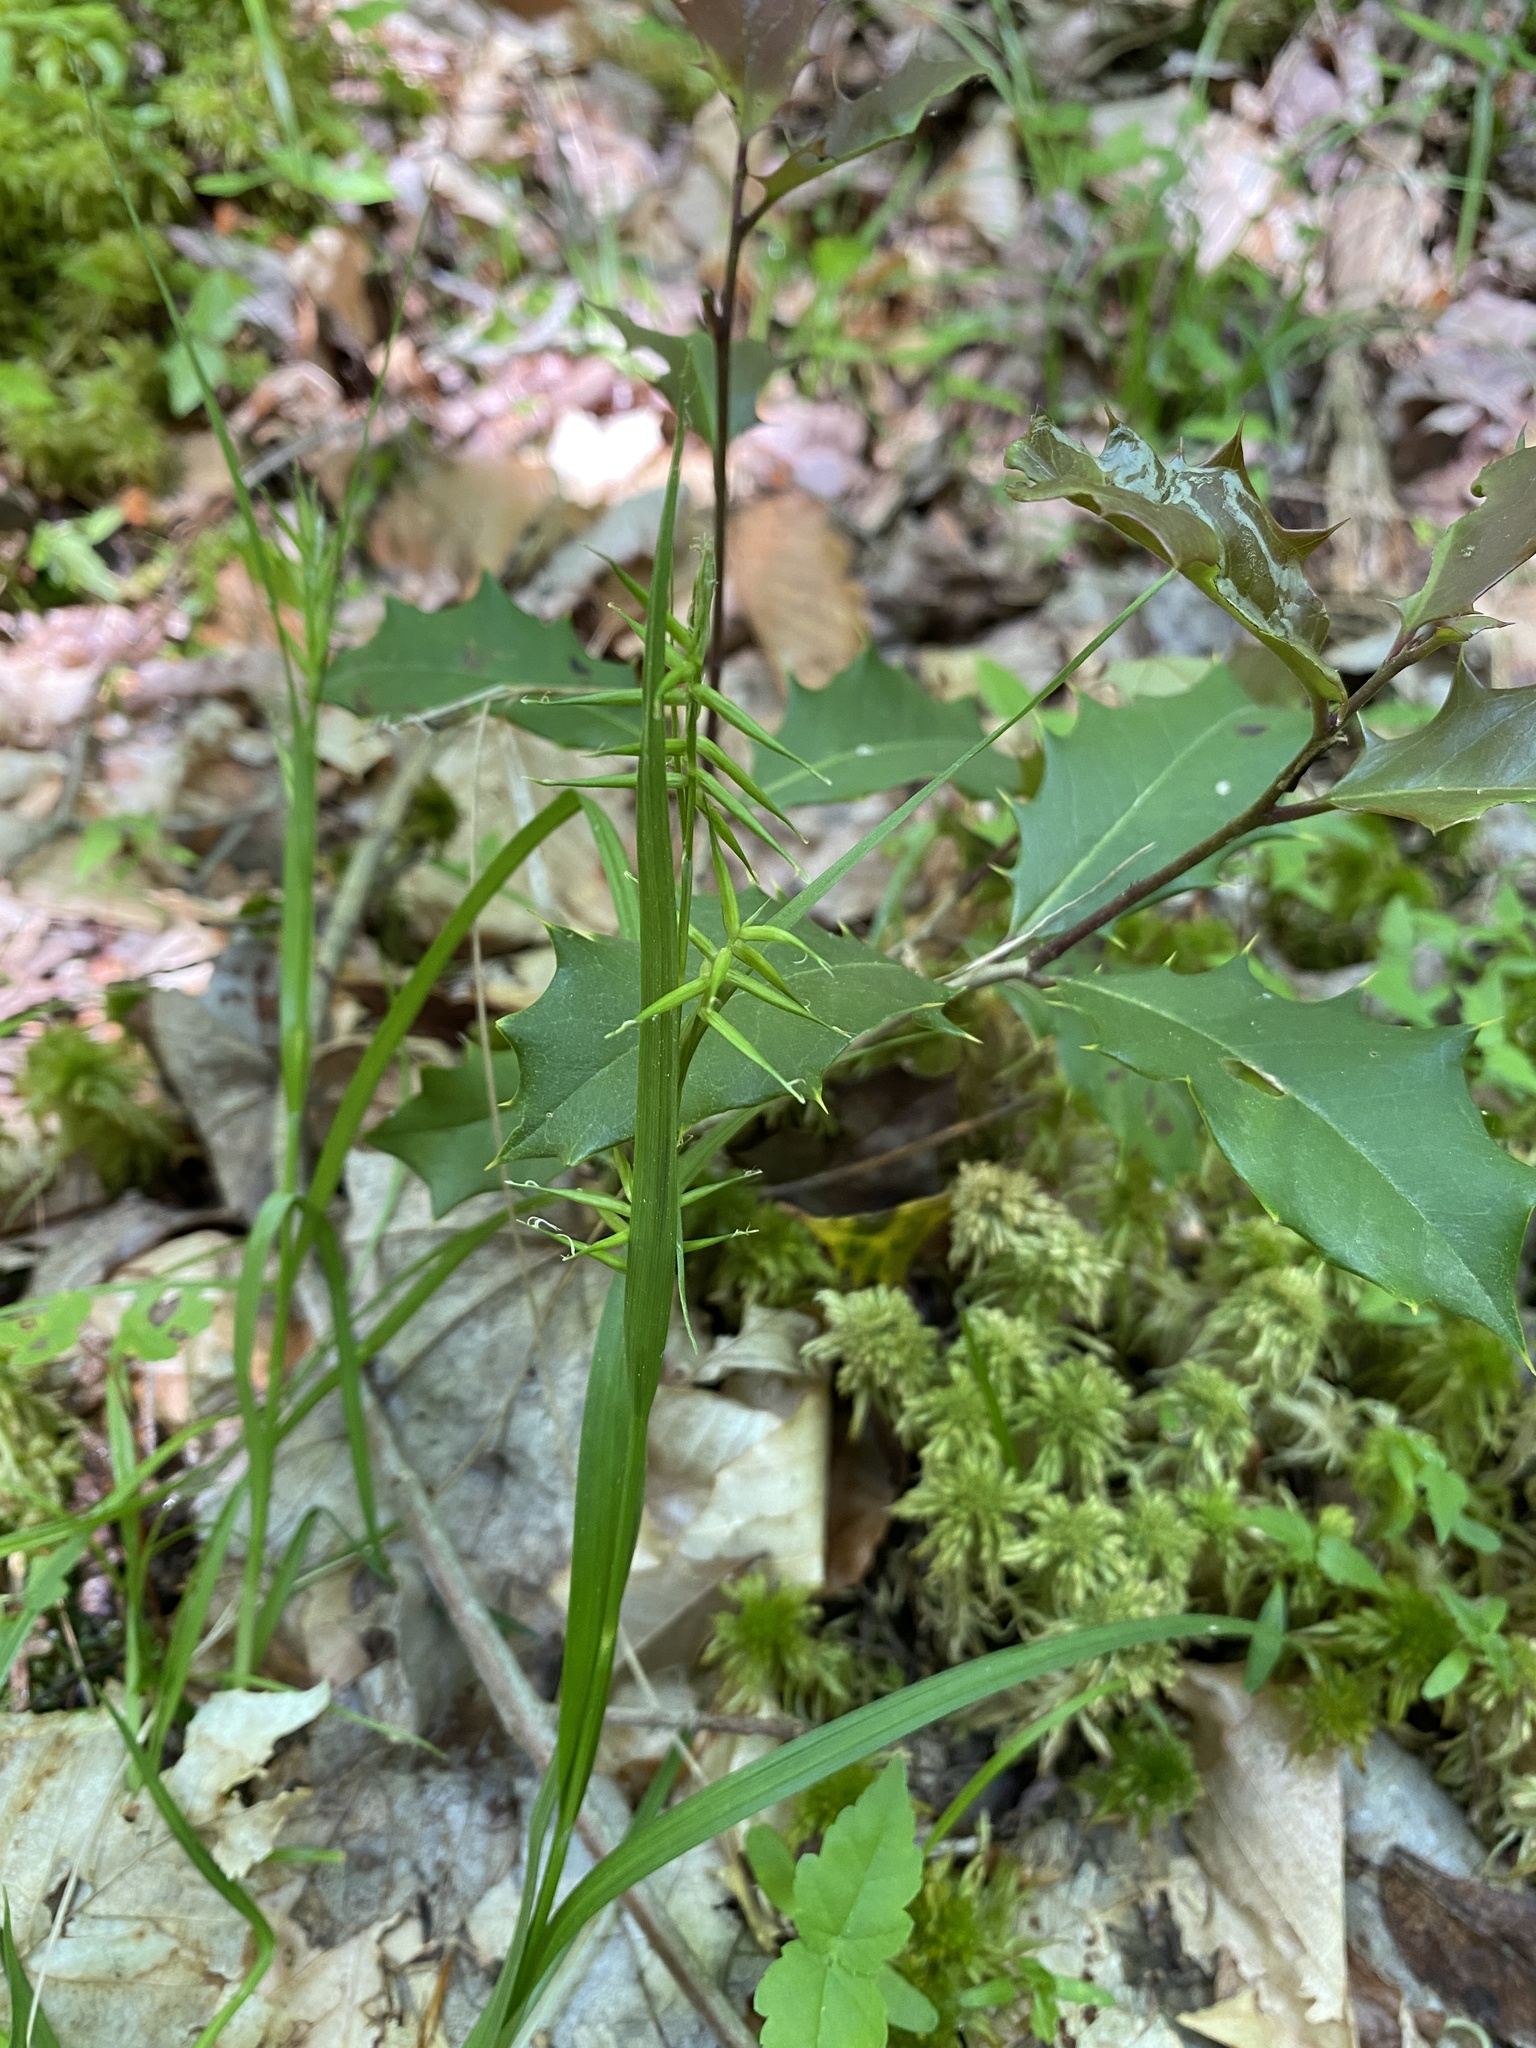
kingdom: Plantae
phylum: Tracheophyta
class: Liliopsida
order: Poales
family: Cyperaceae
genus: Carex
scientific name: Carex collinsii
